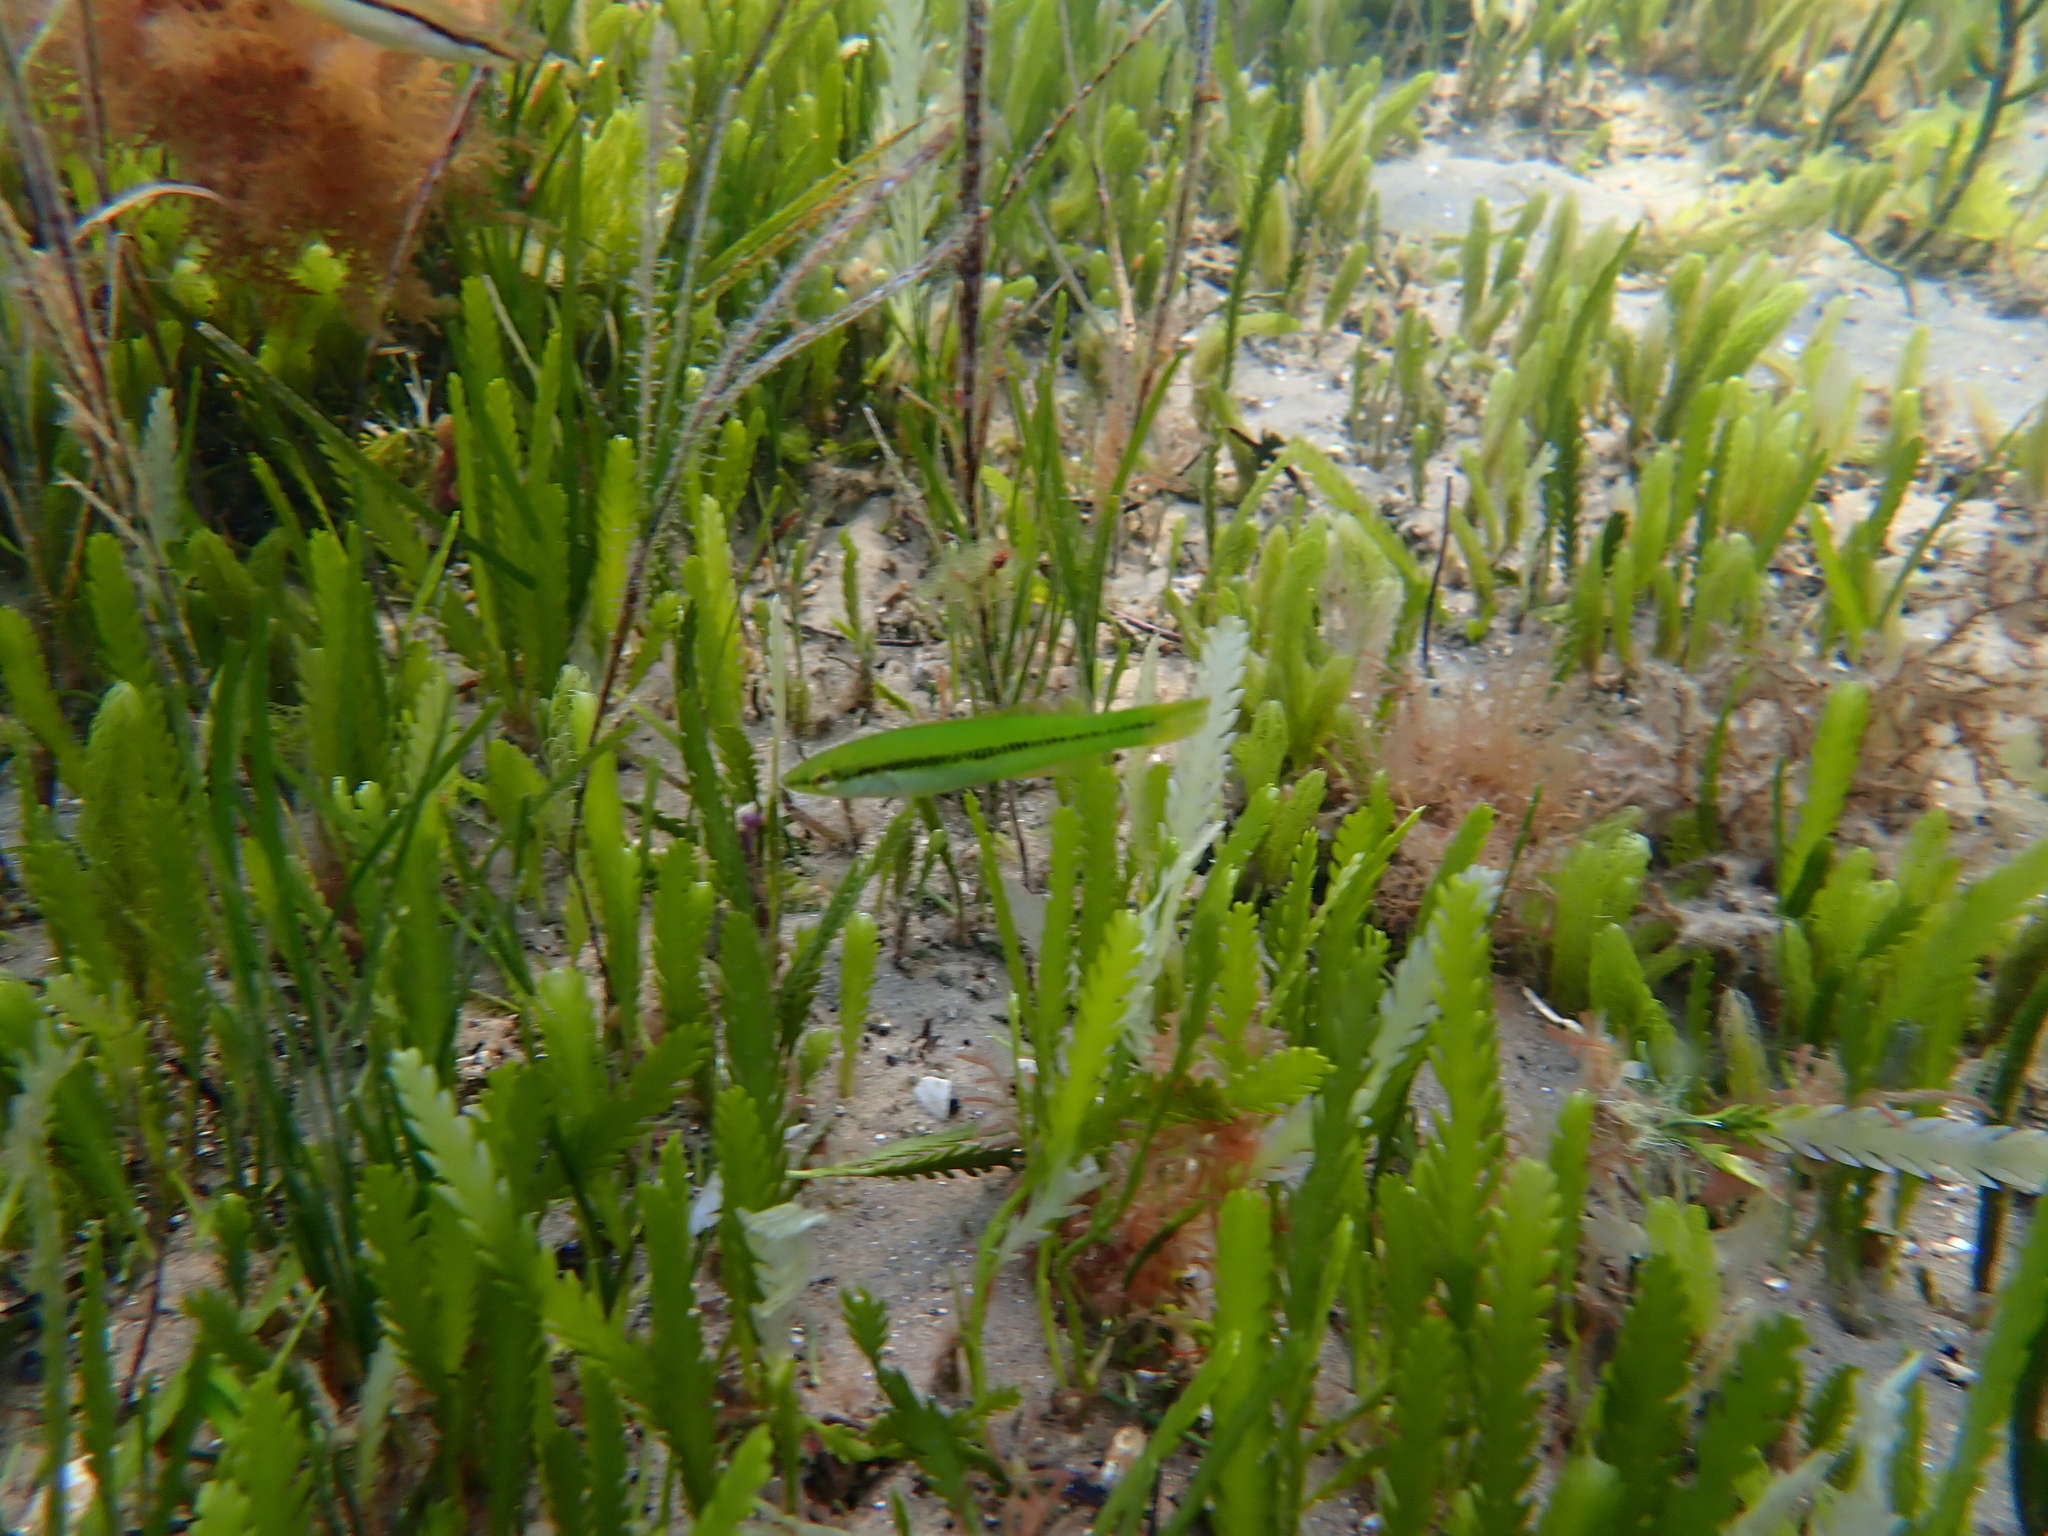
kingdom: Animalia
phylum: Chordata
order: Perciformes
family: Odacidae
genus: Neoodax
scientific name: Neoodax balteatus
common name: Ground mullet
